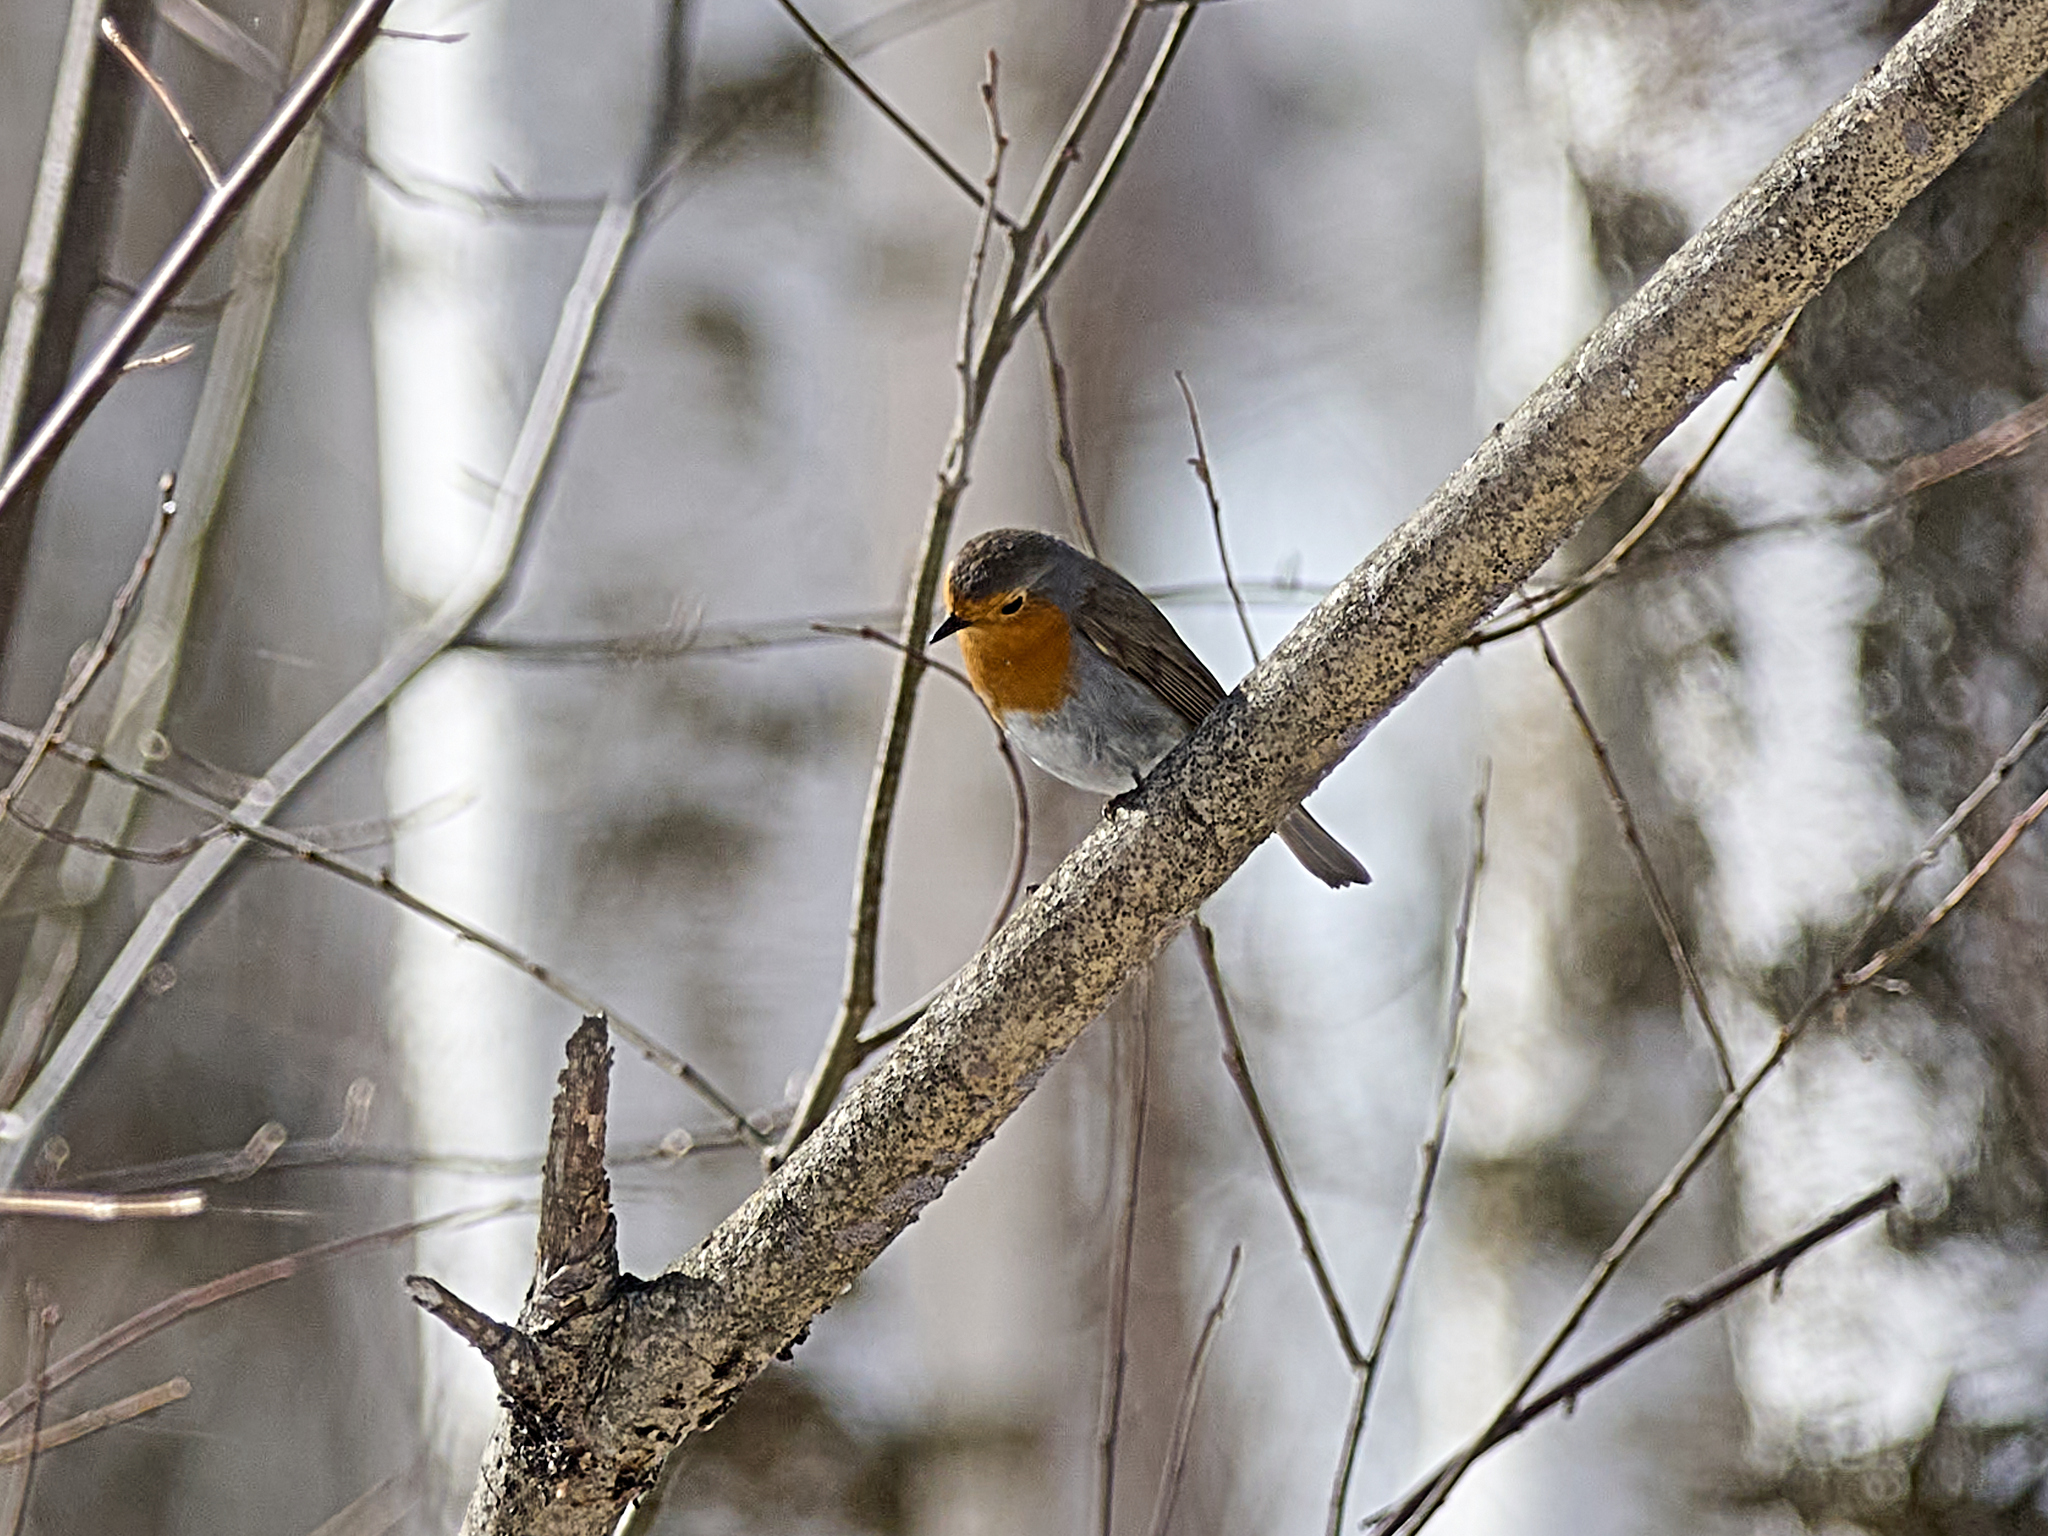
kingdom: Animalia
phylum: Chordata
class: Aves
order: Passeriformes
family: Muscicapidae
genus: Erithacus
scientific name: Erithacus rubecula
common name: European robin
